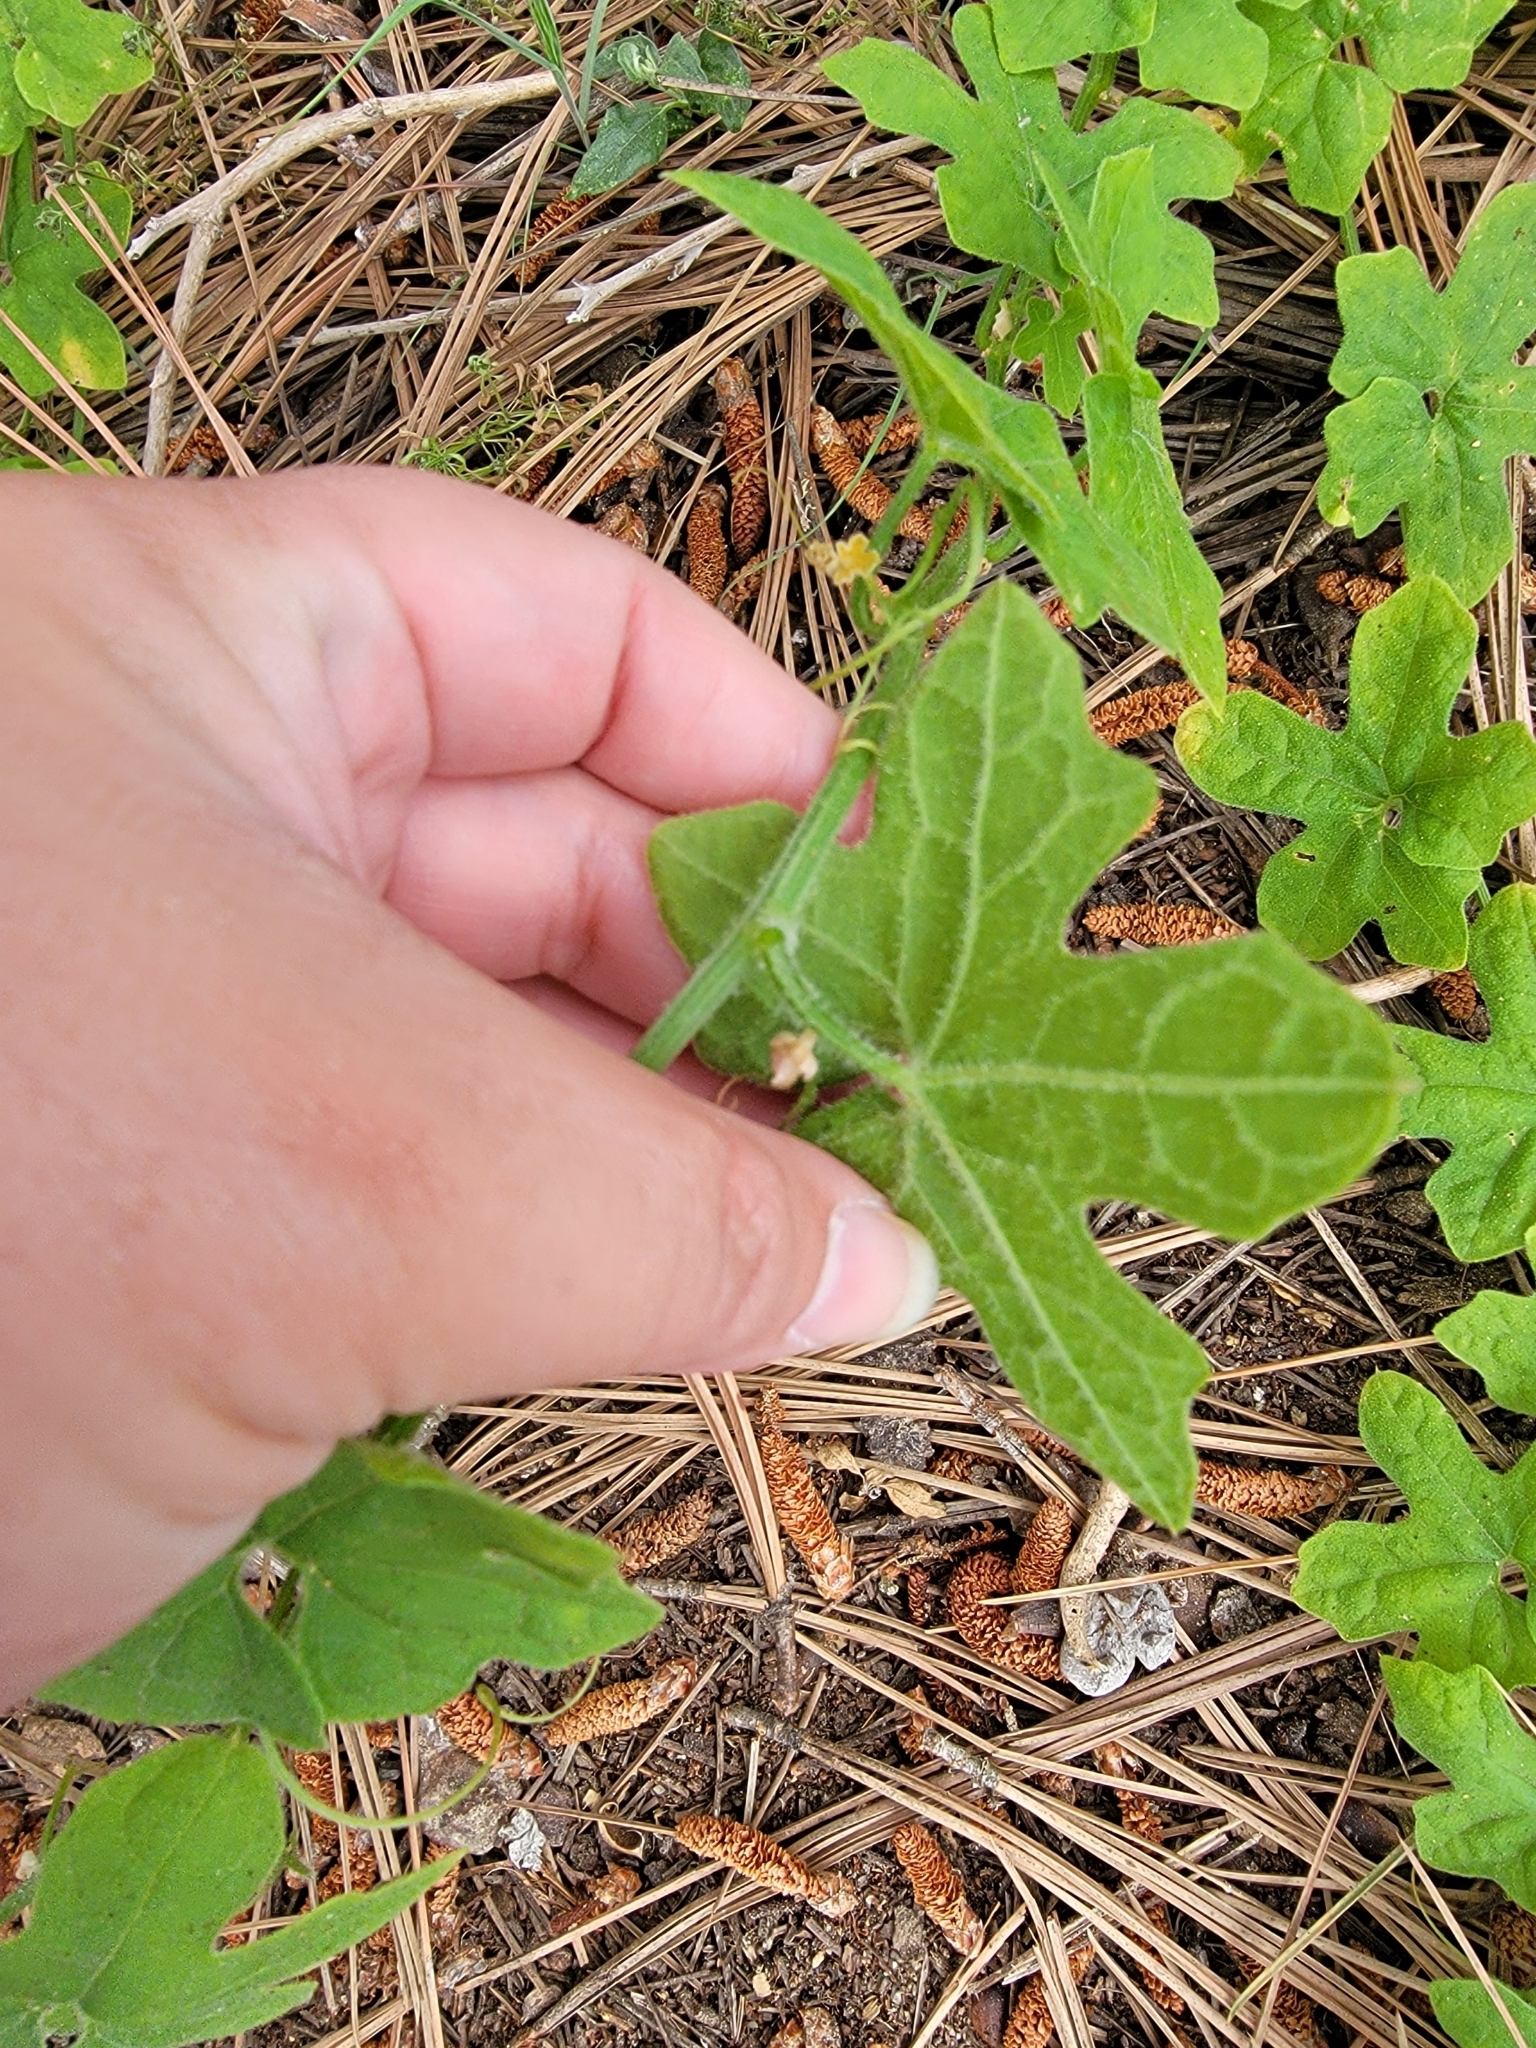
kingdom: Plantae
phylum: Tracheophyta
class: Magnoliopsida
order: Cucurbitales
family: Cucurbitaceae
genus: Marah
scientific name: Marah macrocarpa
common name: Cucamonga manroot
